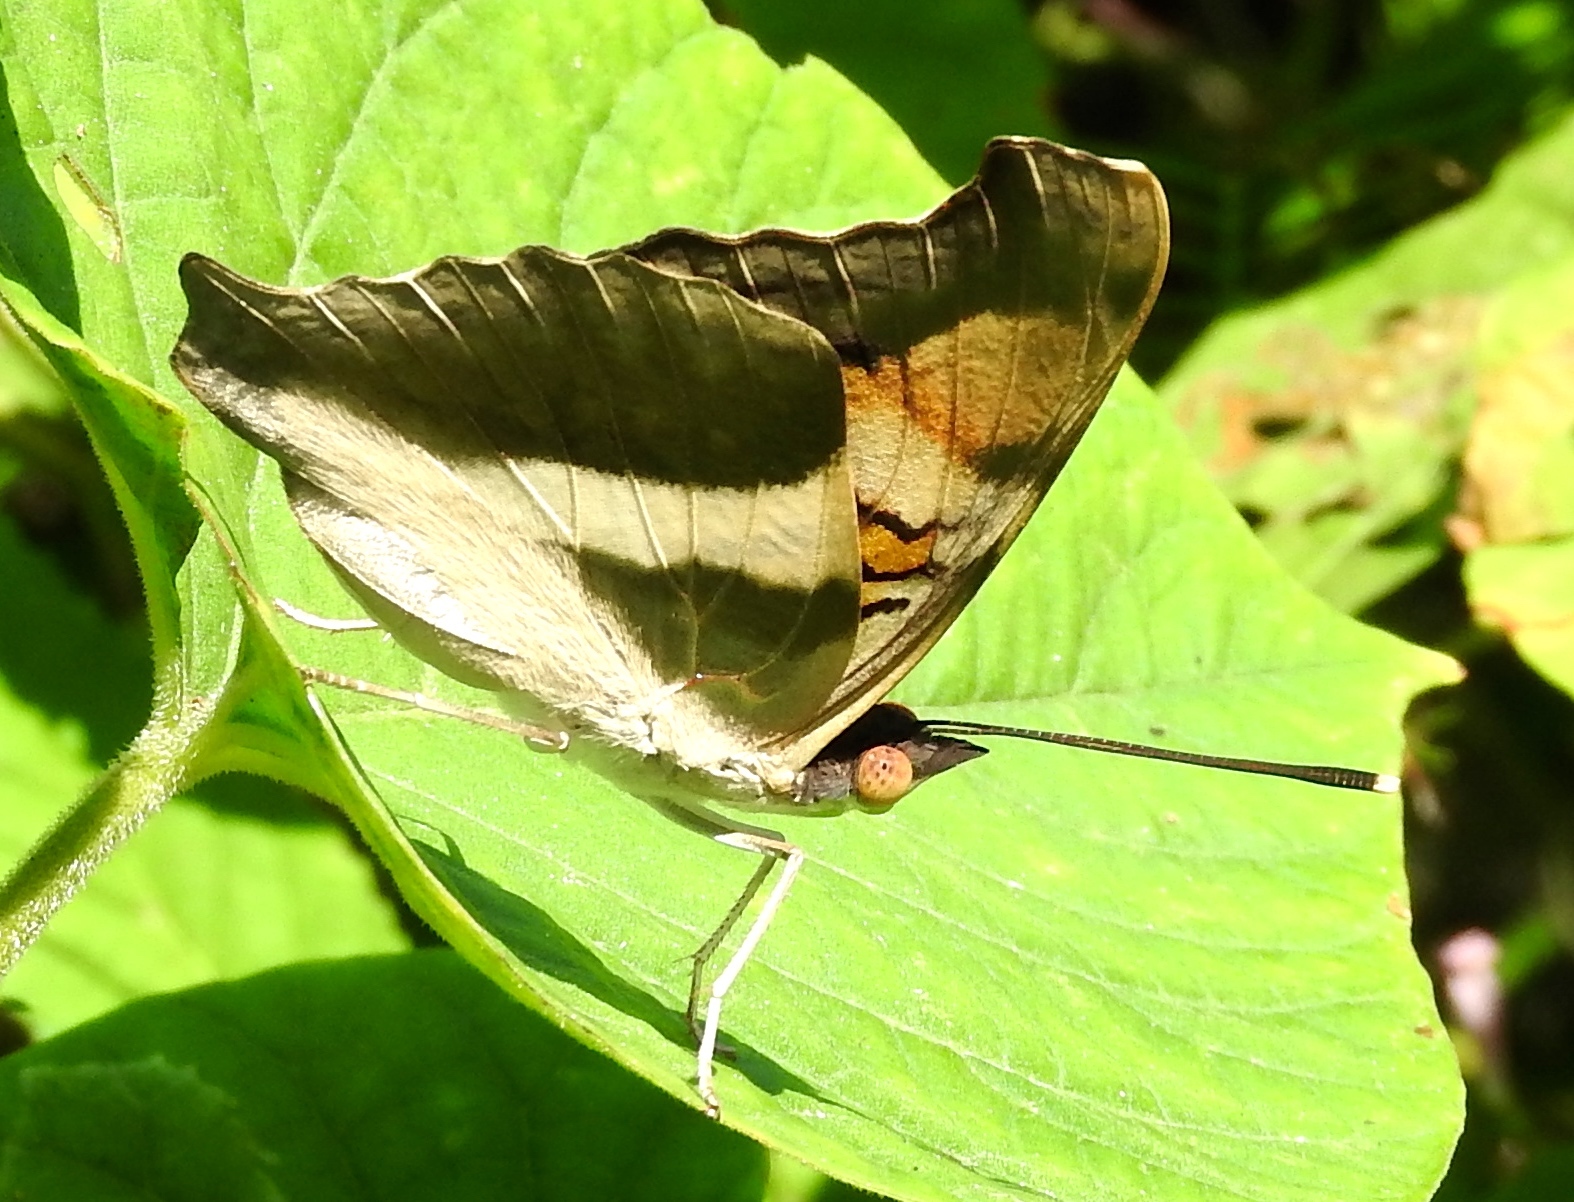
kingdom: Animalia
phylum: Arthropoda
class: Insecta
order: Lepidoptera
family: Nymphalidae
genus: Doxocopa
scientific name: Doxocopa laure
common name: Silver emperor
